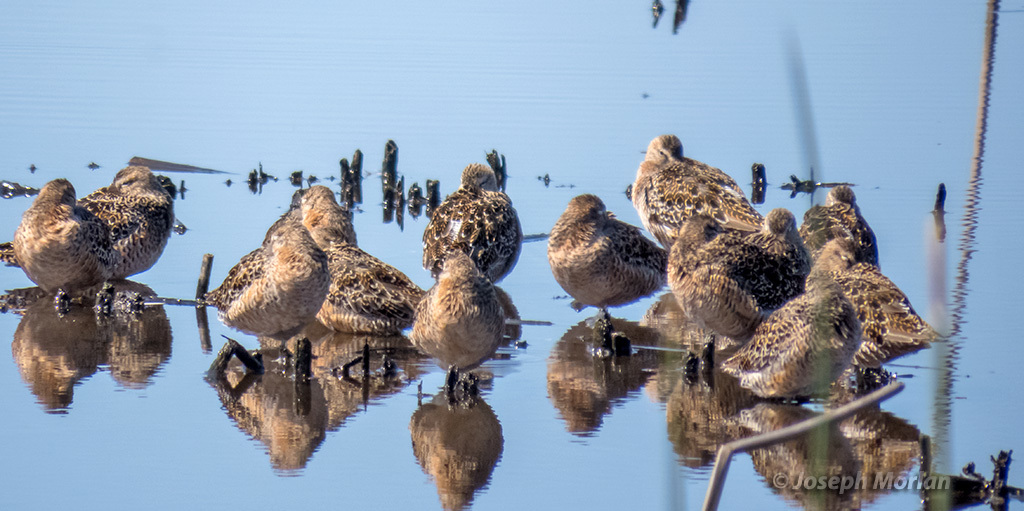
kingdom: Animalia
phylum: Chordata
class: Aves
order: Charadriiformes
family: Scolopacidae
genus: Limnodromus
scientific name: Limnodromus scolopaceus
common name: Long-billed dowitcher
